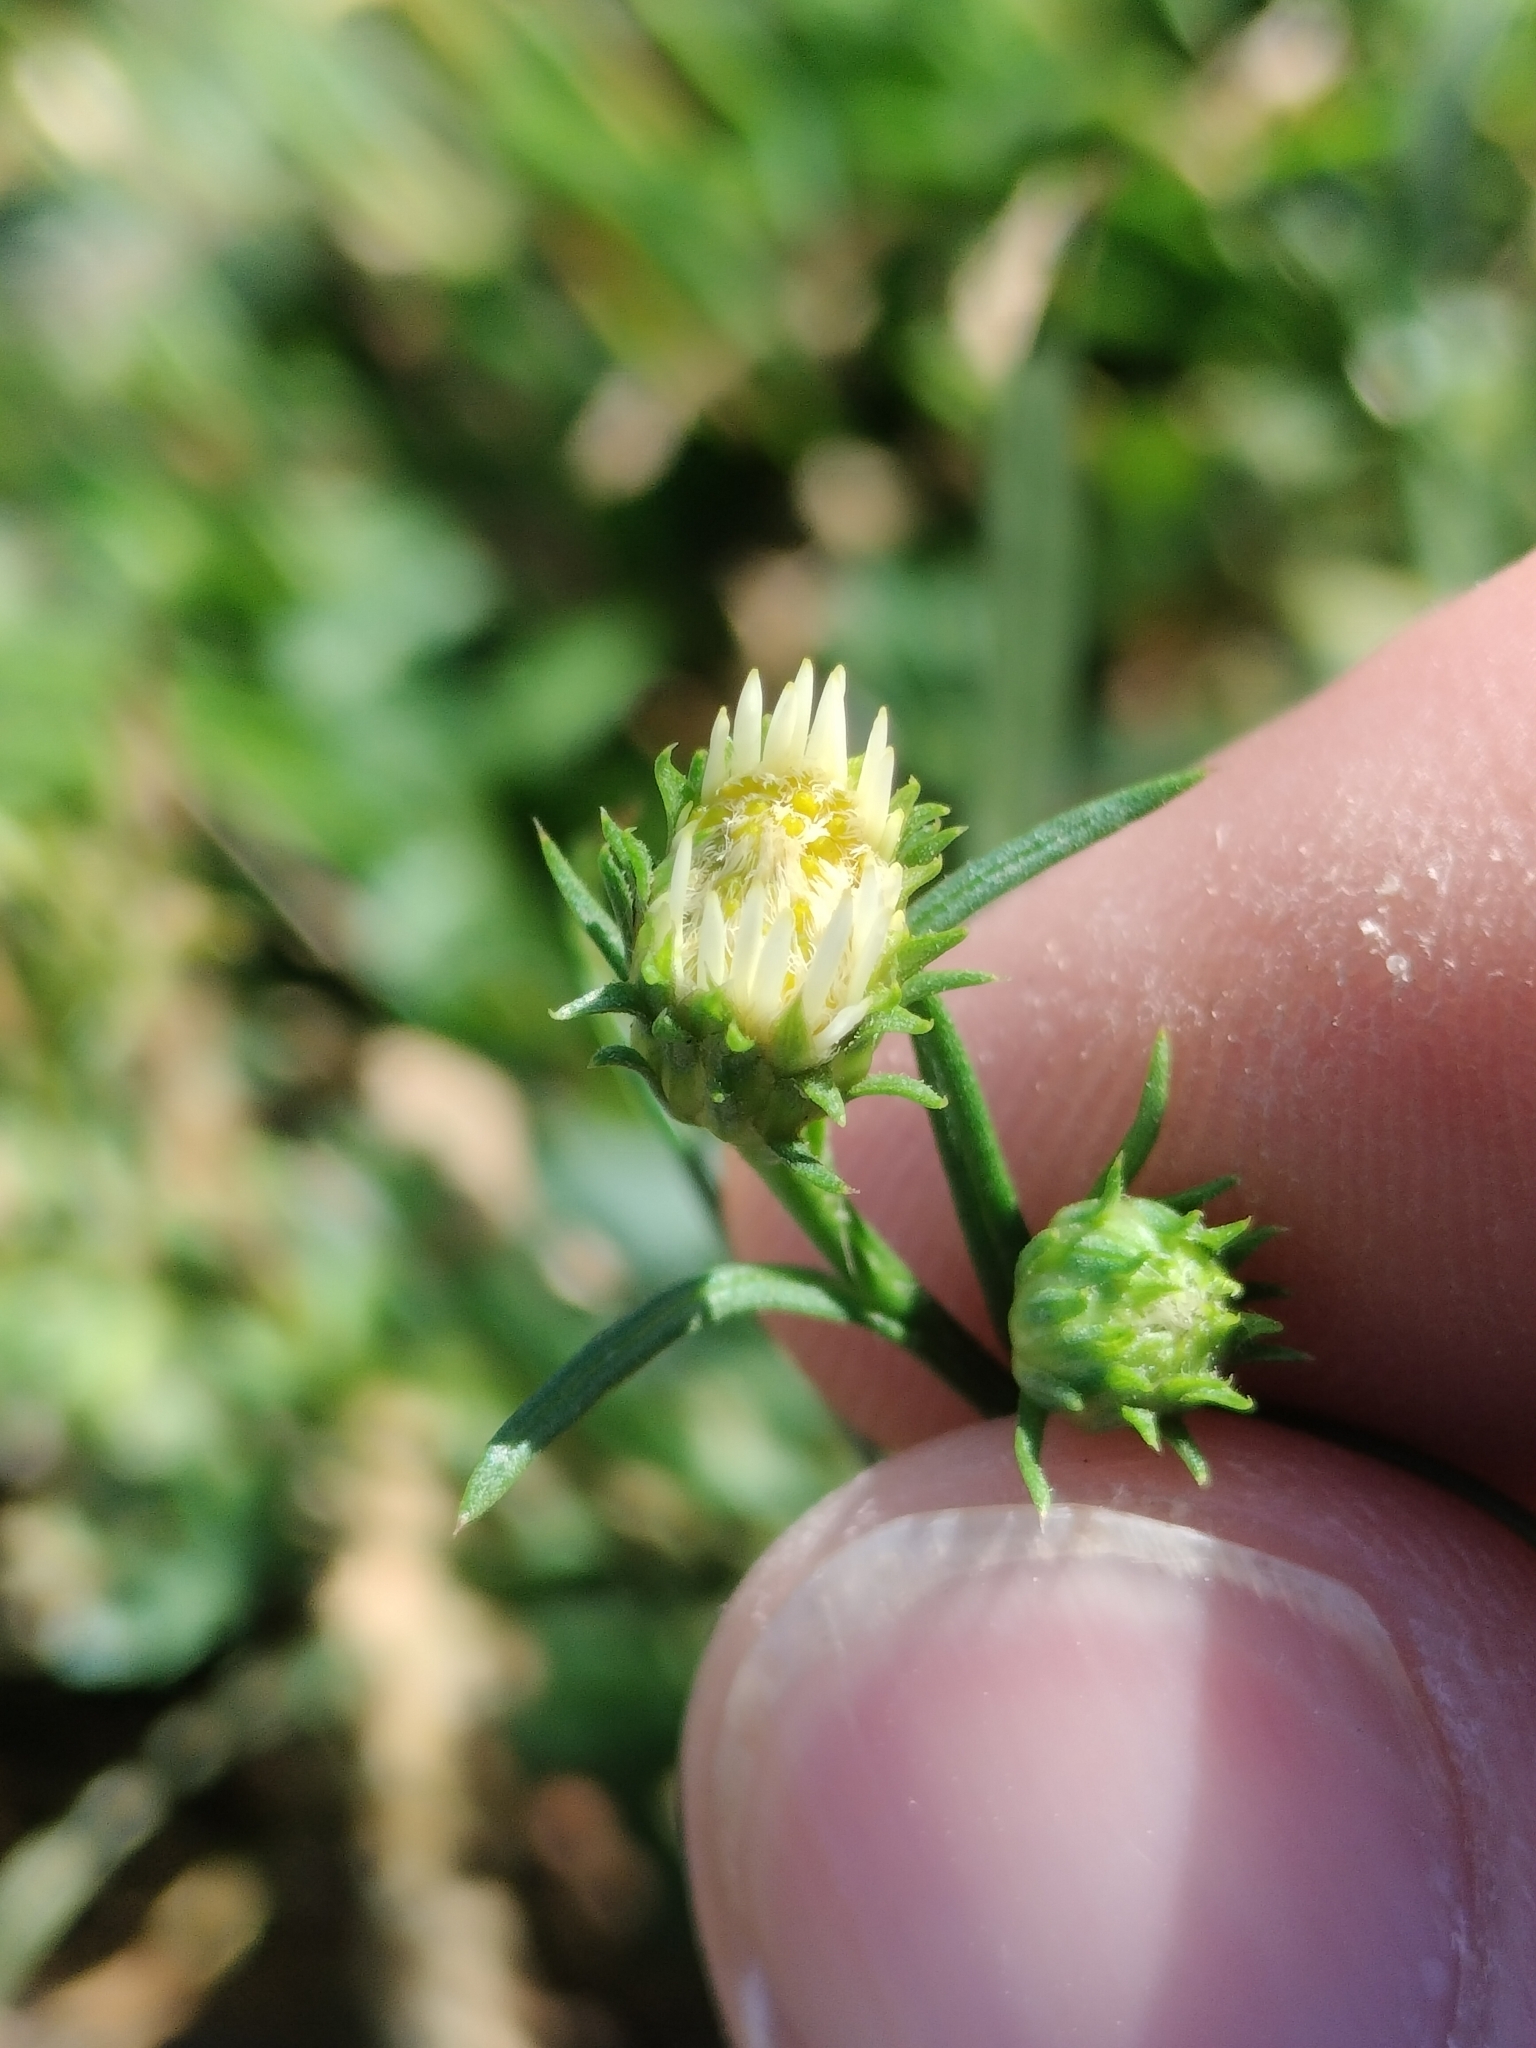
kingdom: Plantae
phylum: Tracheophyta
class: Magnoliopsida
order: Asterales
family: Asteraceae
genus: Symphyotrichum
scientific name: Symphyotrichum pilosum
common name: Awl aster
